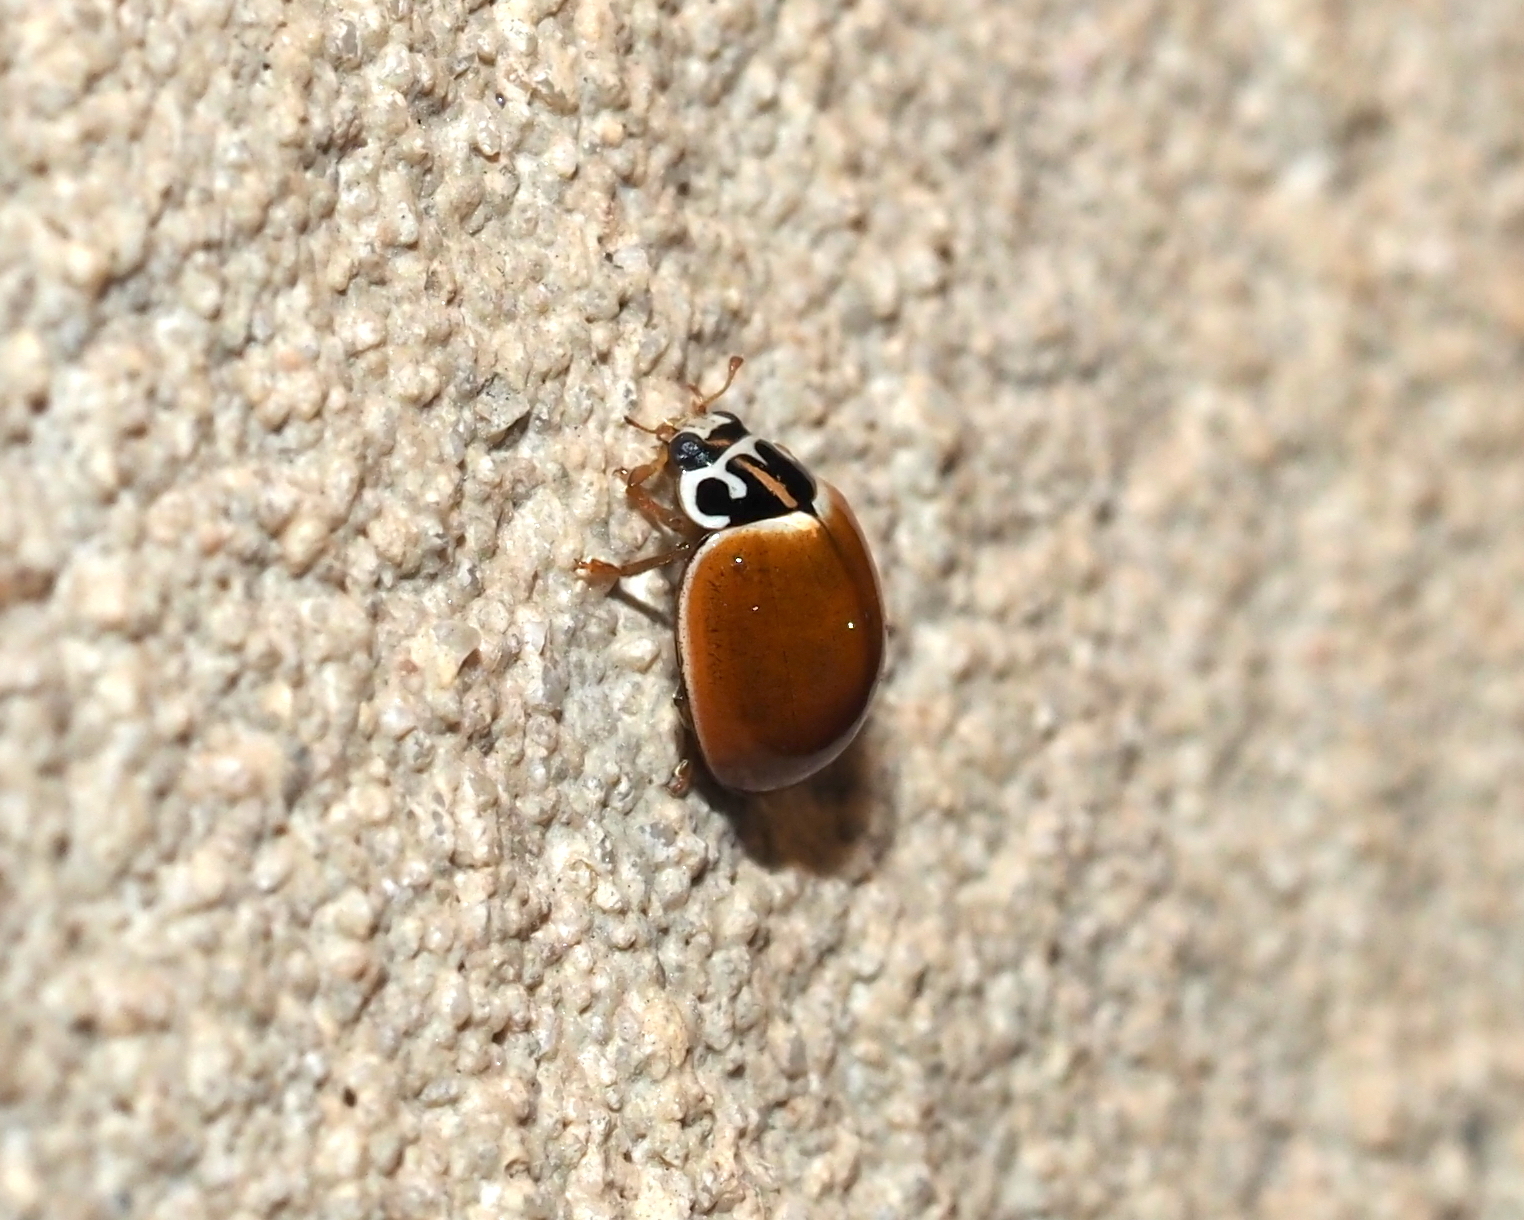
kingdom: Animalia
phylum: Arthropoda
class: Insecta
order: Coleoptera
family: Coccinellidae
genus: Cycloneda
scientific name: Cycloneda munda
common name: Polished lady beetle
